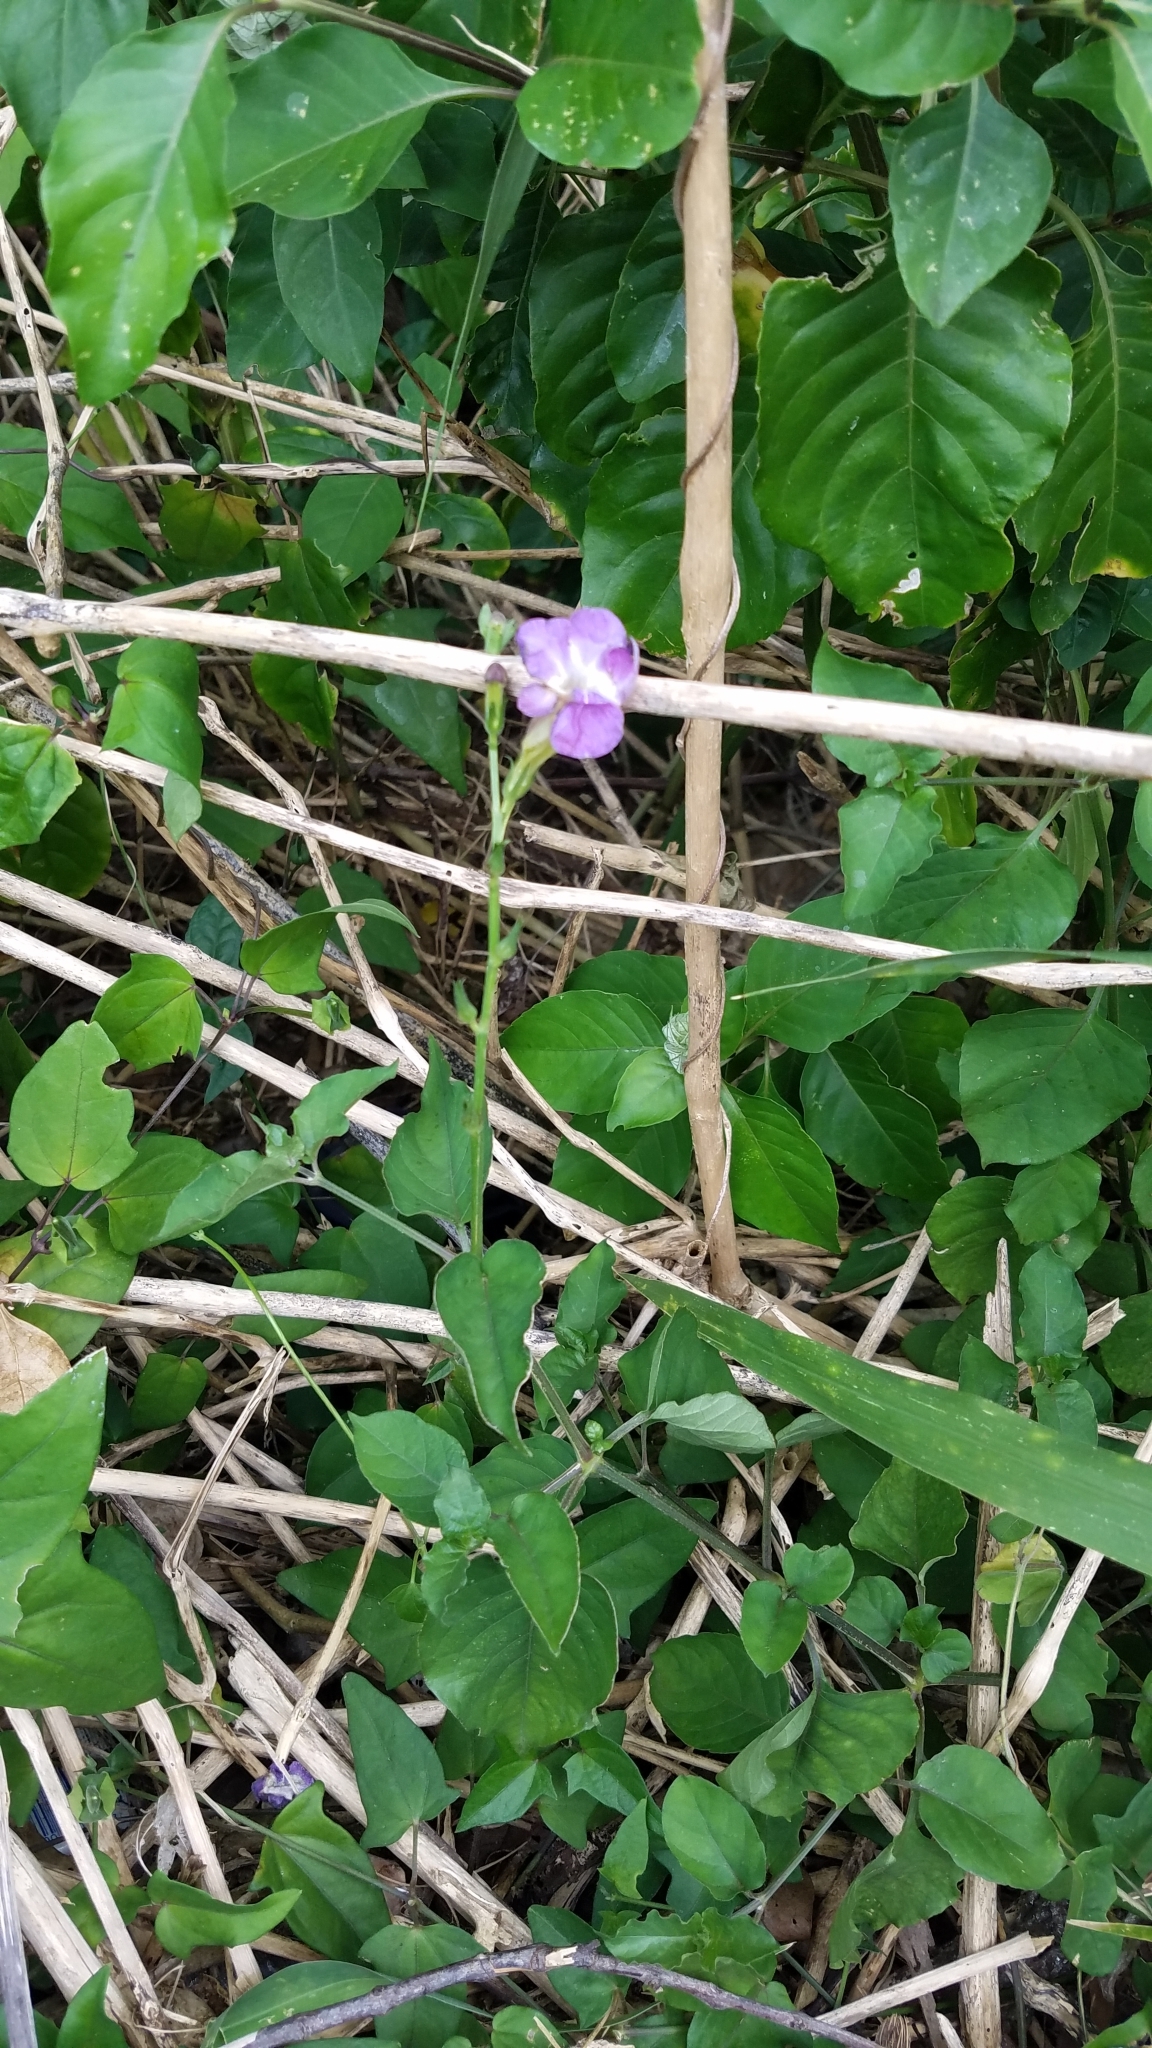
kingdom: Plantae
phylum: Tracheophyta
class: Magnoliopsida
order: Lamiales
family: Acanthaceae
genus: Asystasia
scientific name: Asystasia gangetica
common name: Chinese violet
